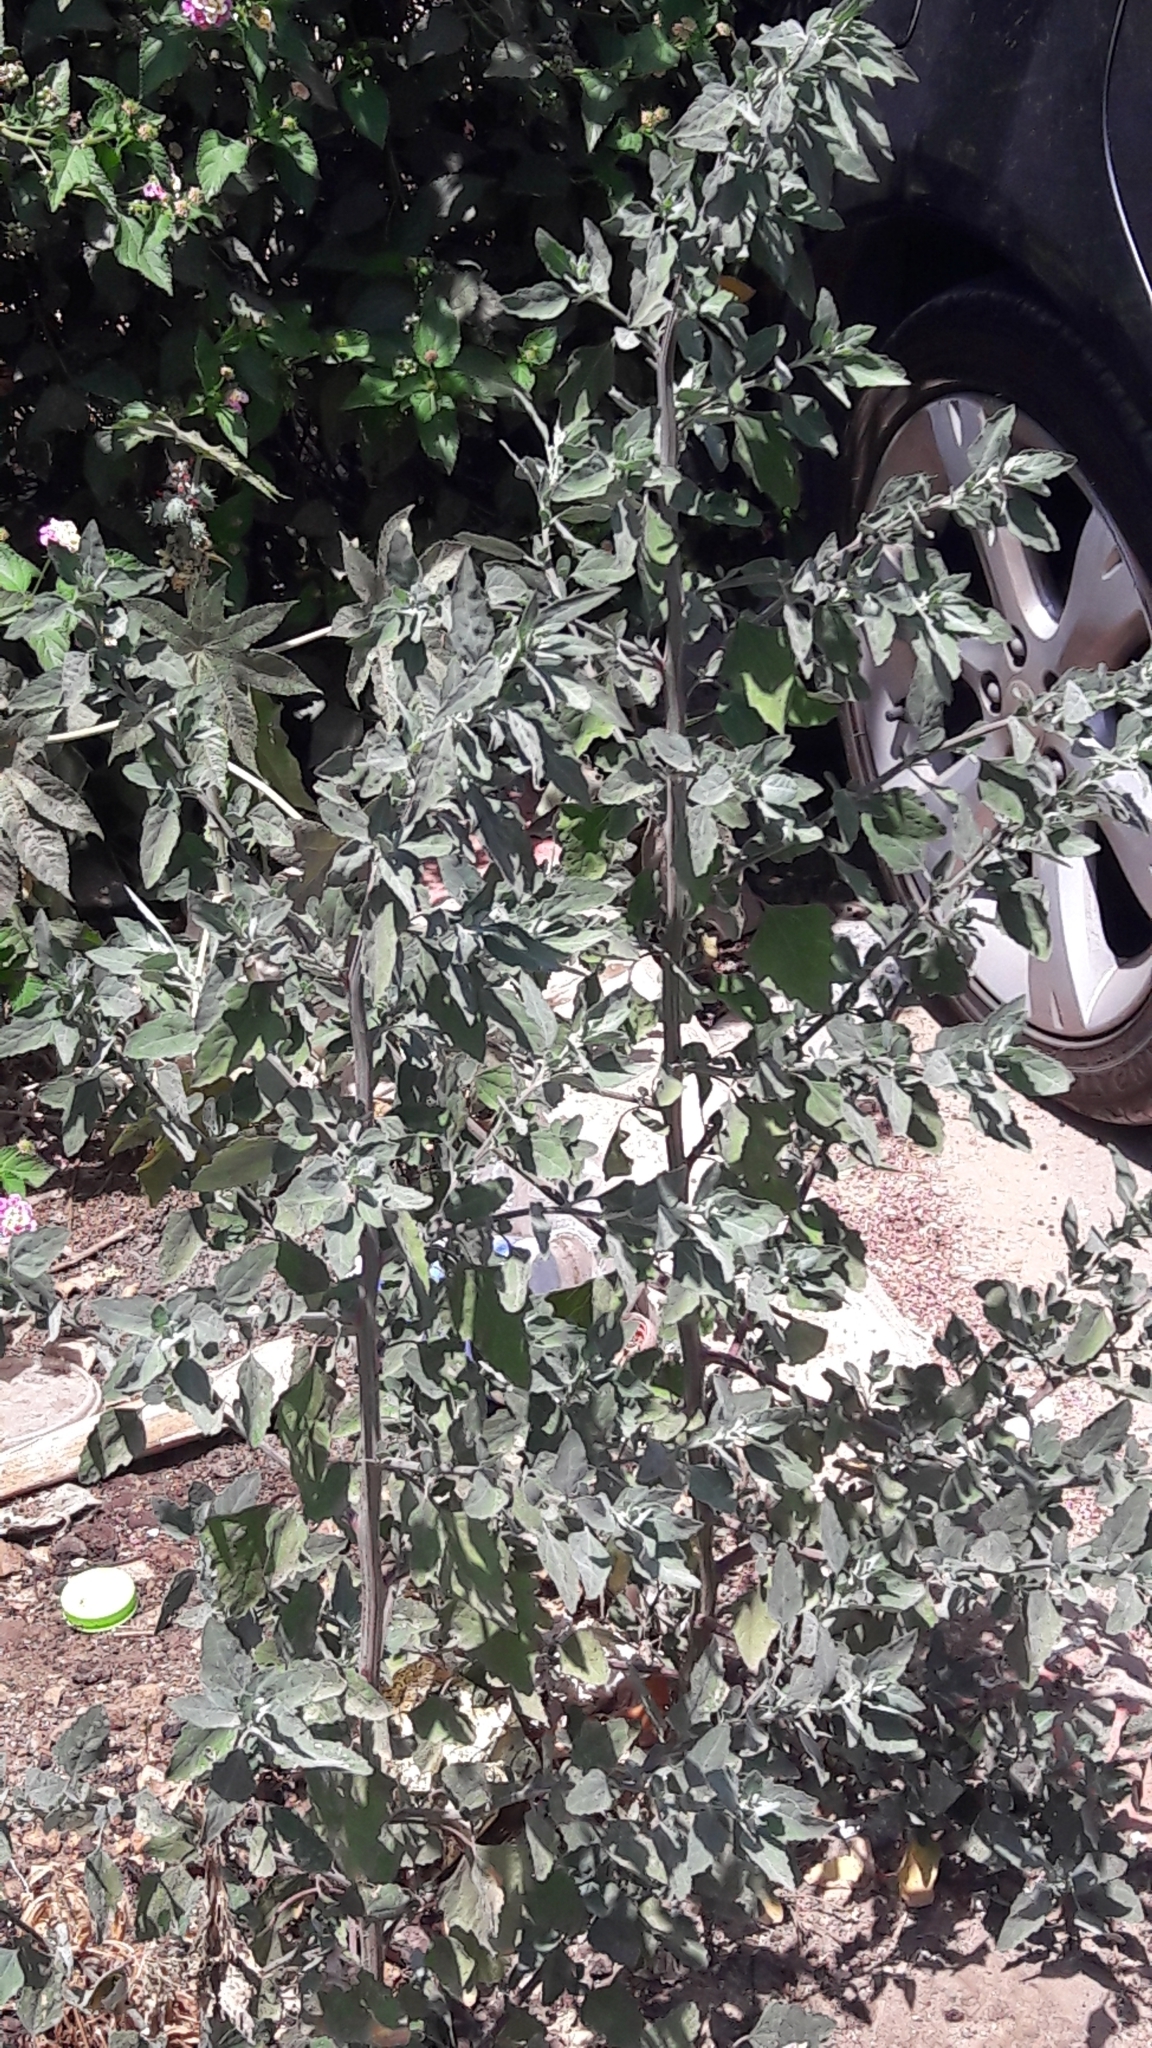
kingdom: Plantae
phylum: Tracheophyta
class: Magnoliopsida
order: Caryophyllales
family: Amaranthaceae
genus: Chenopodium
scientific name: Chenopodium album
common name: Fat-hen
